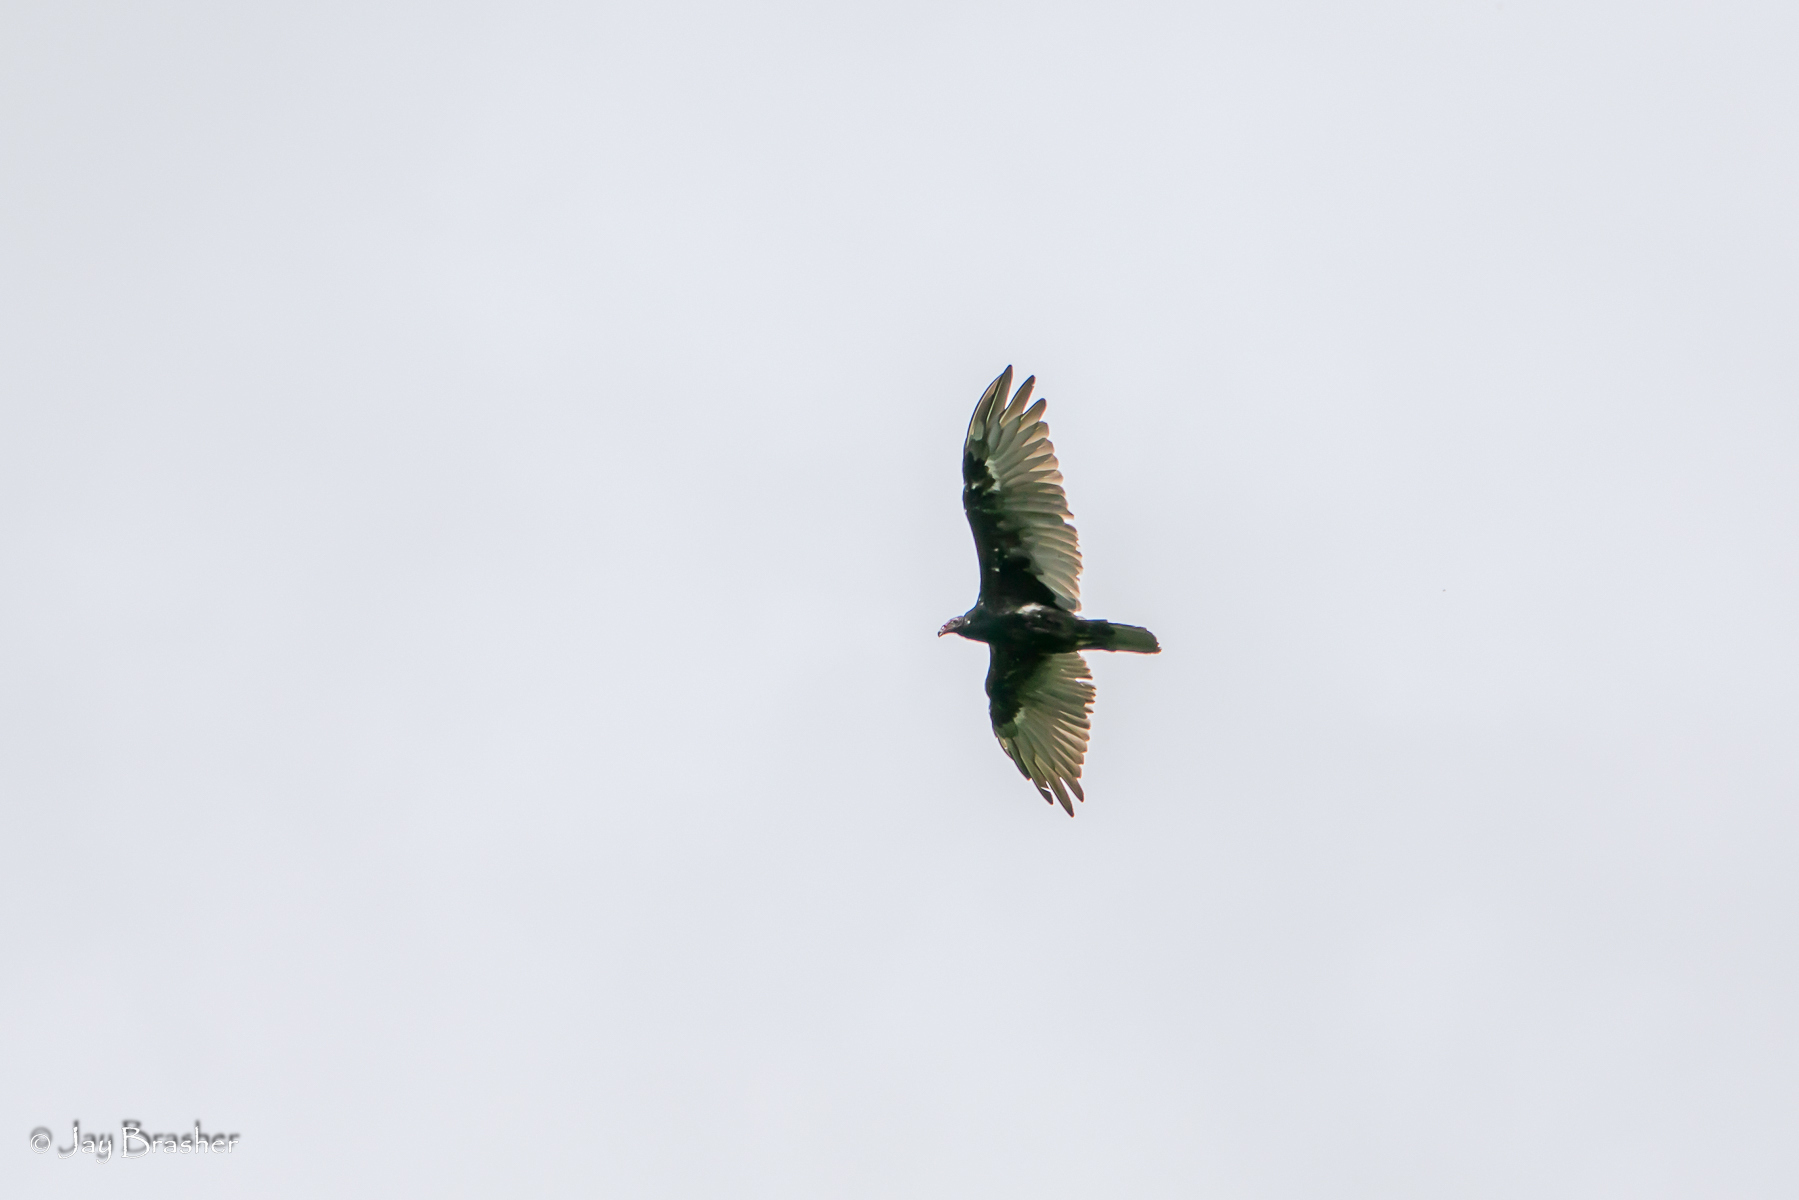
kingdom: Animalia
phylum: Chordata
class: Aves
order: Accipitriformes
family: Cathartidae
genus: Cathartes
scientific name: Cathartes aura
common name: Turkey vulture
